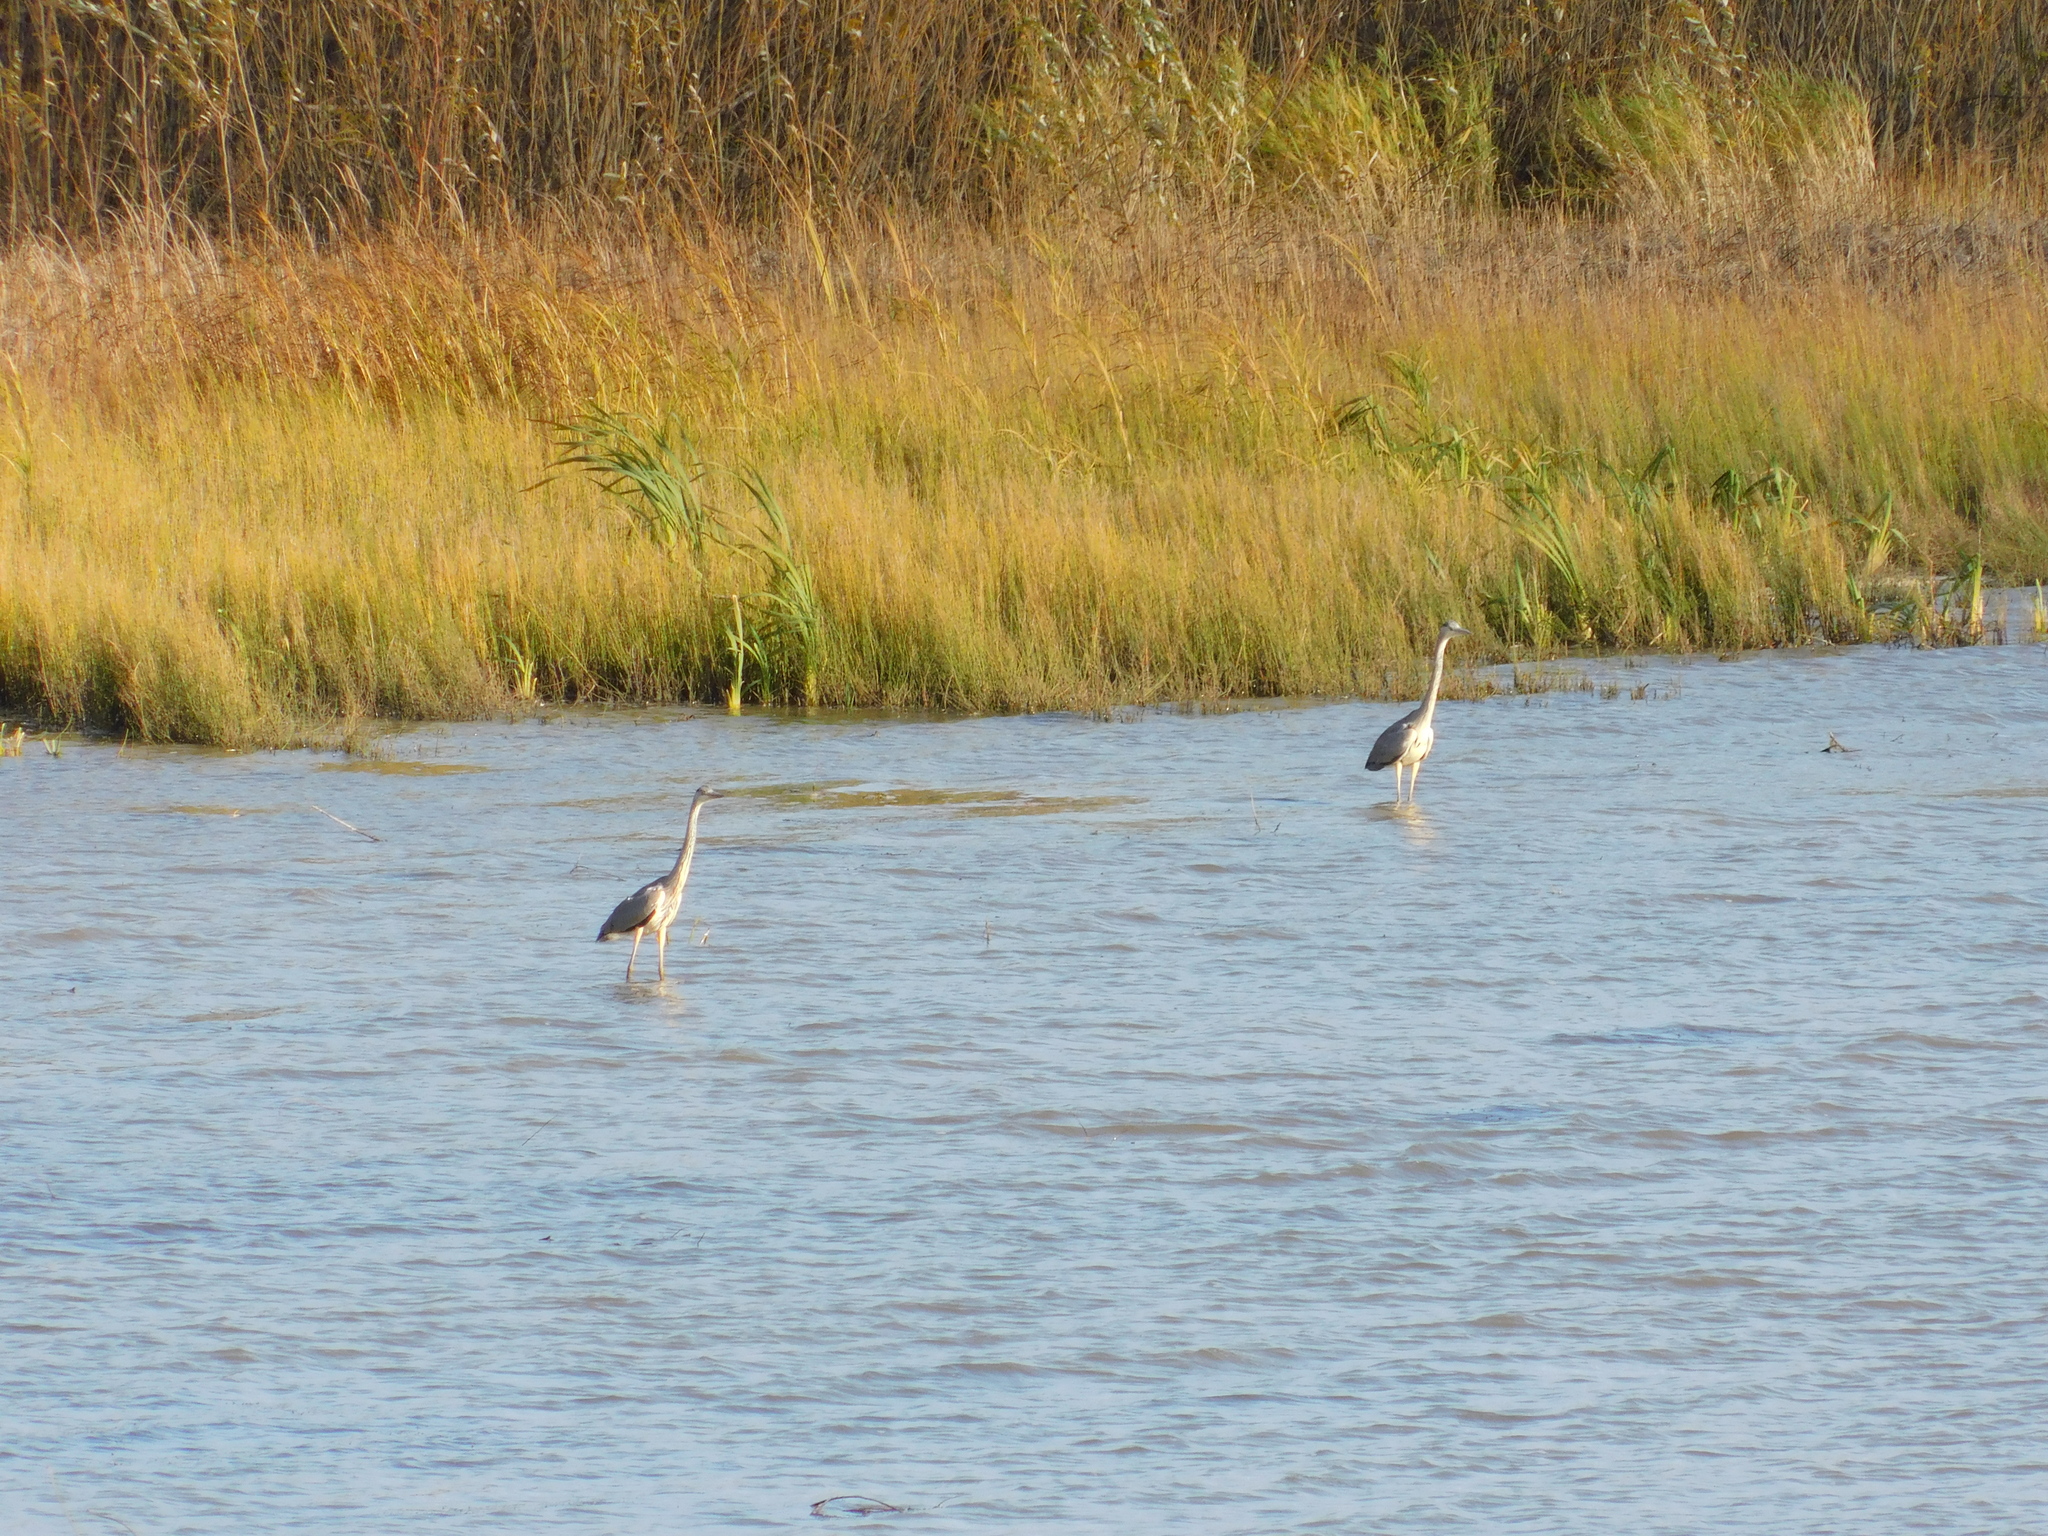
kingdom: Animalia
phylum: Chordata
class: Aves
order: Pelecaniformes
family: Ardeidae
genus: Ardea
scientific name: Ardea cinerea
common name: Grey heron
